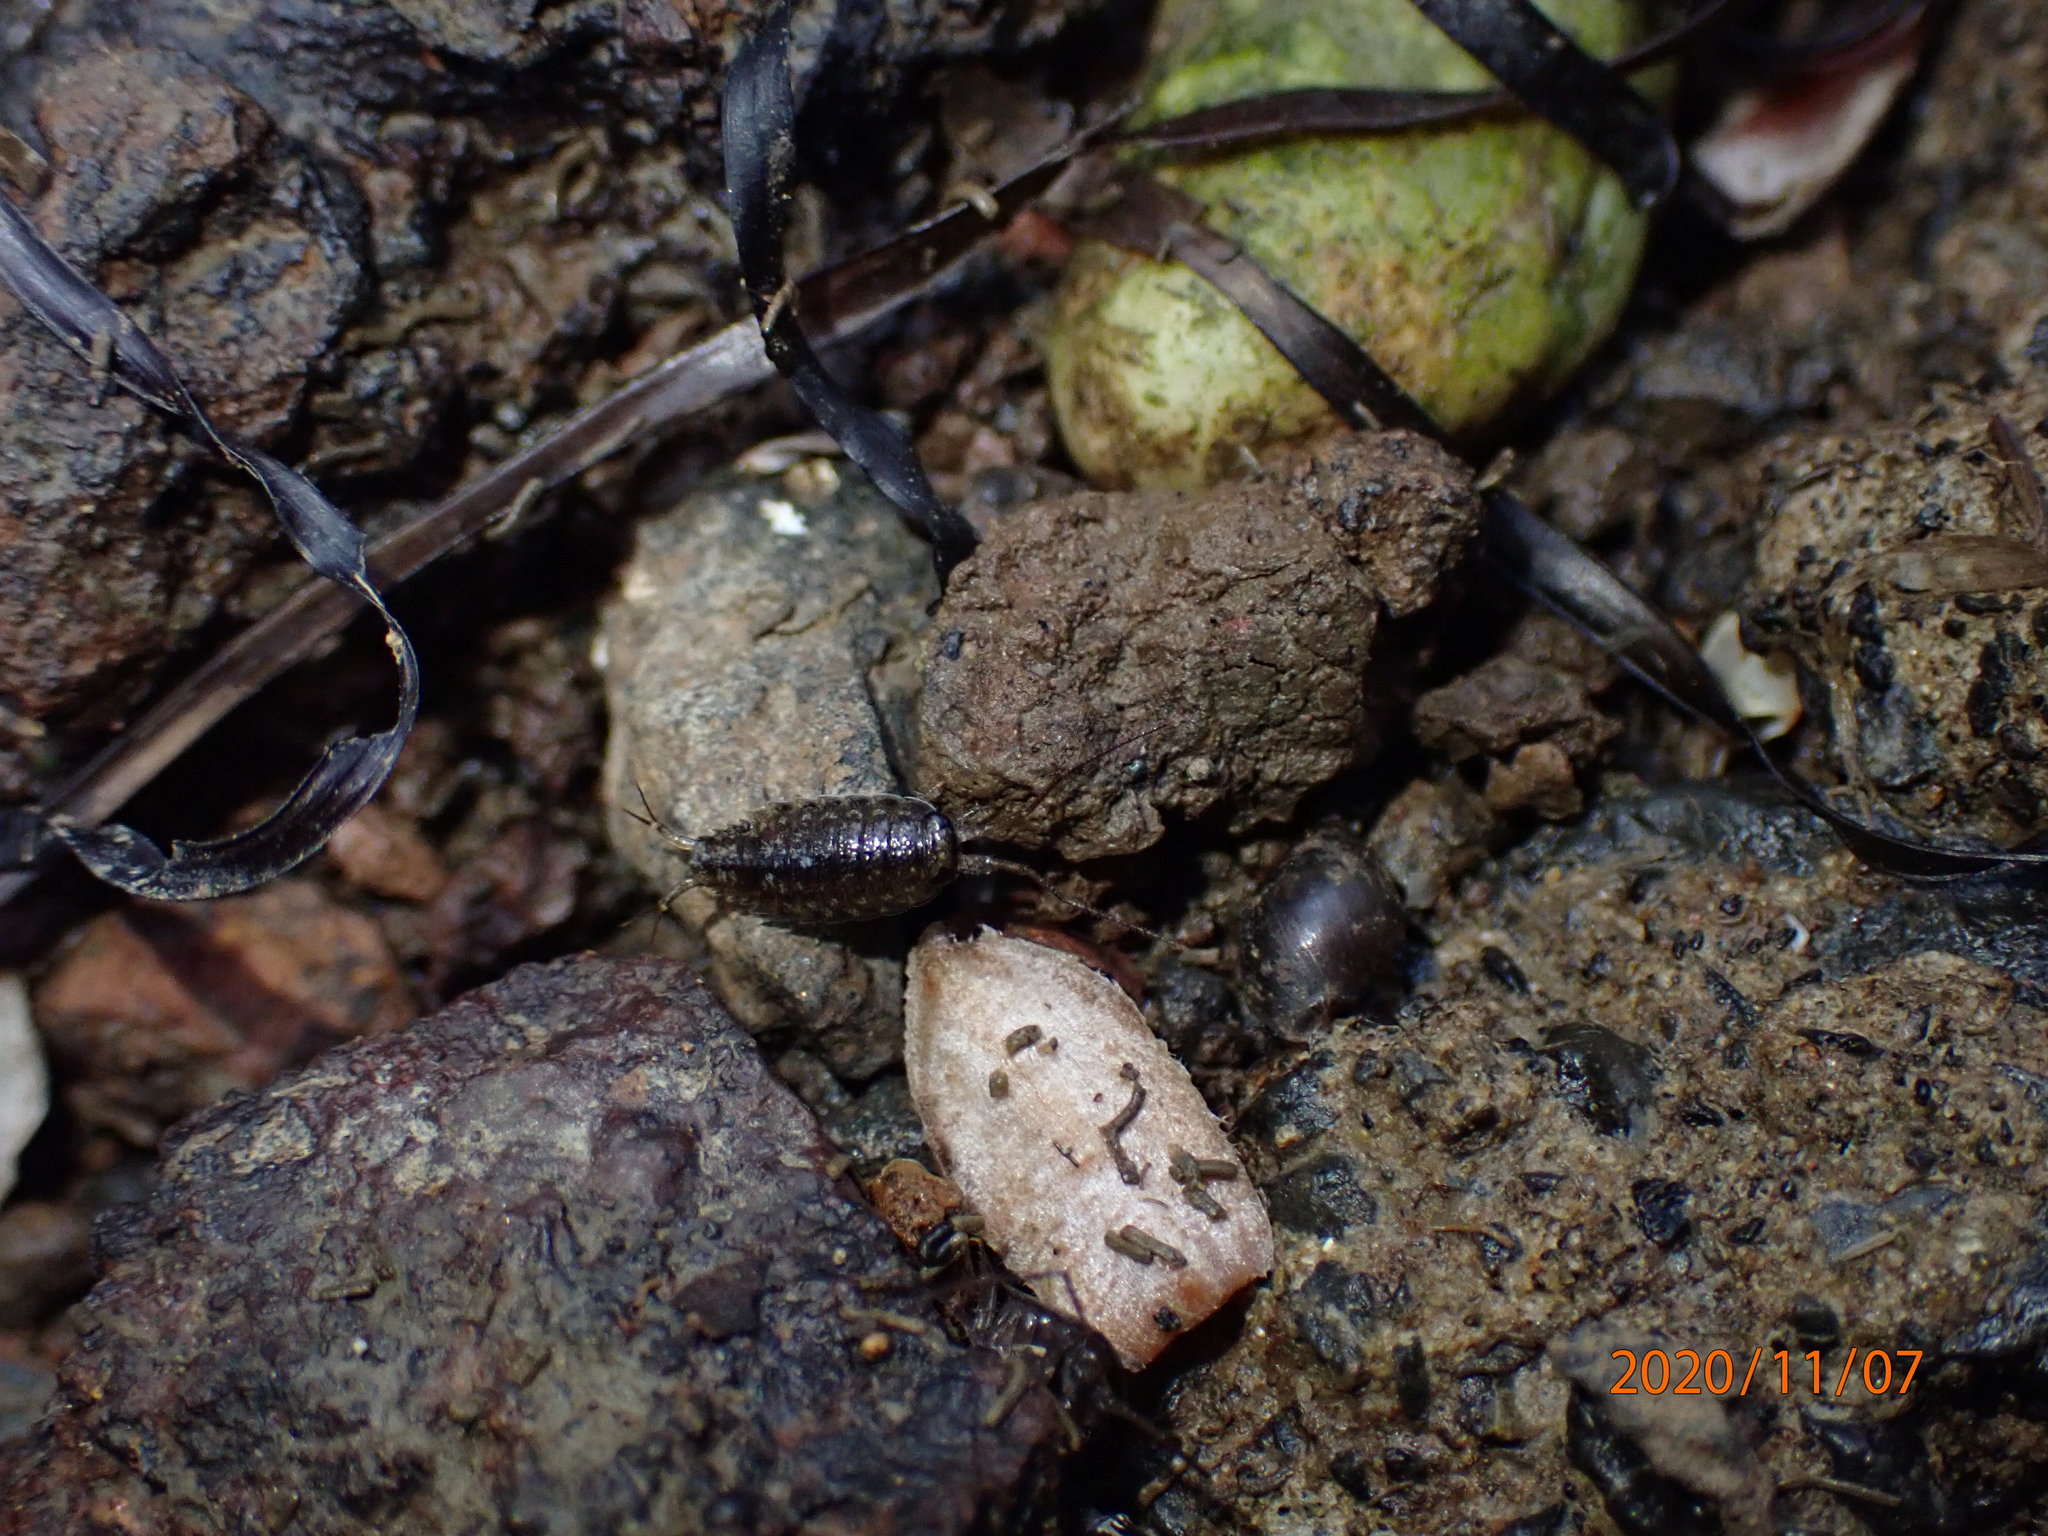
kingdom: Animalia
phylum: Arthropoda
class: Malacostraca
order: Isopoda
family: Ligiidae
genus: Ligia
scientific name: Ligia novizealandiae
